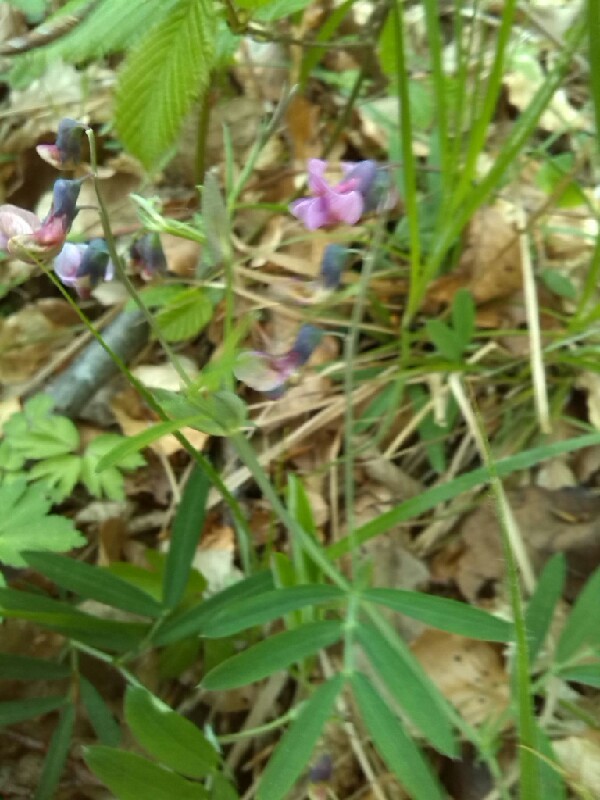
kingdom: Plantae
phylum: Tracheophyta
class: Magnoliopsida
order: Fabales
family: Fabaceae
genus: Lathyrus
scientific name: Lathyrus linifolius
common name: Bitter-vetch
